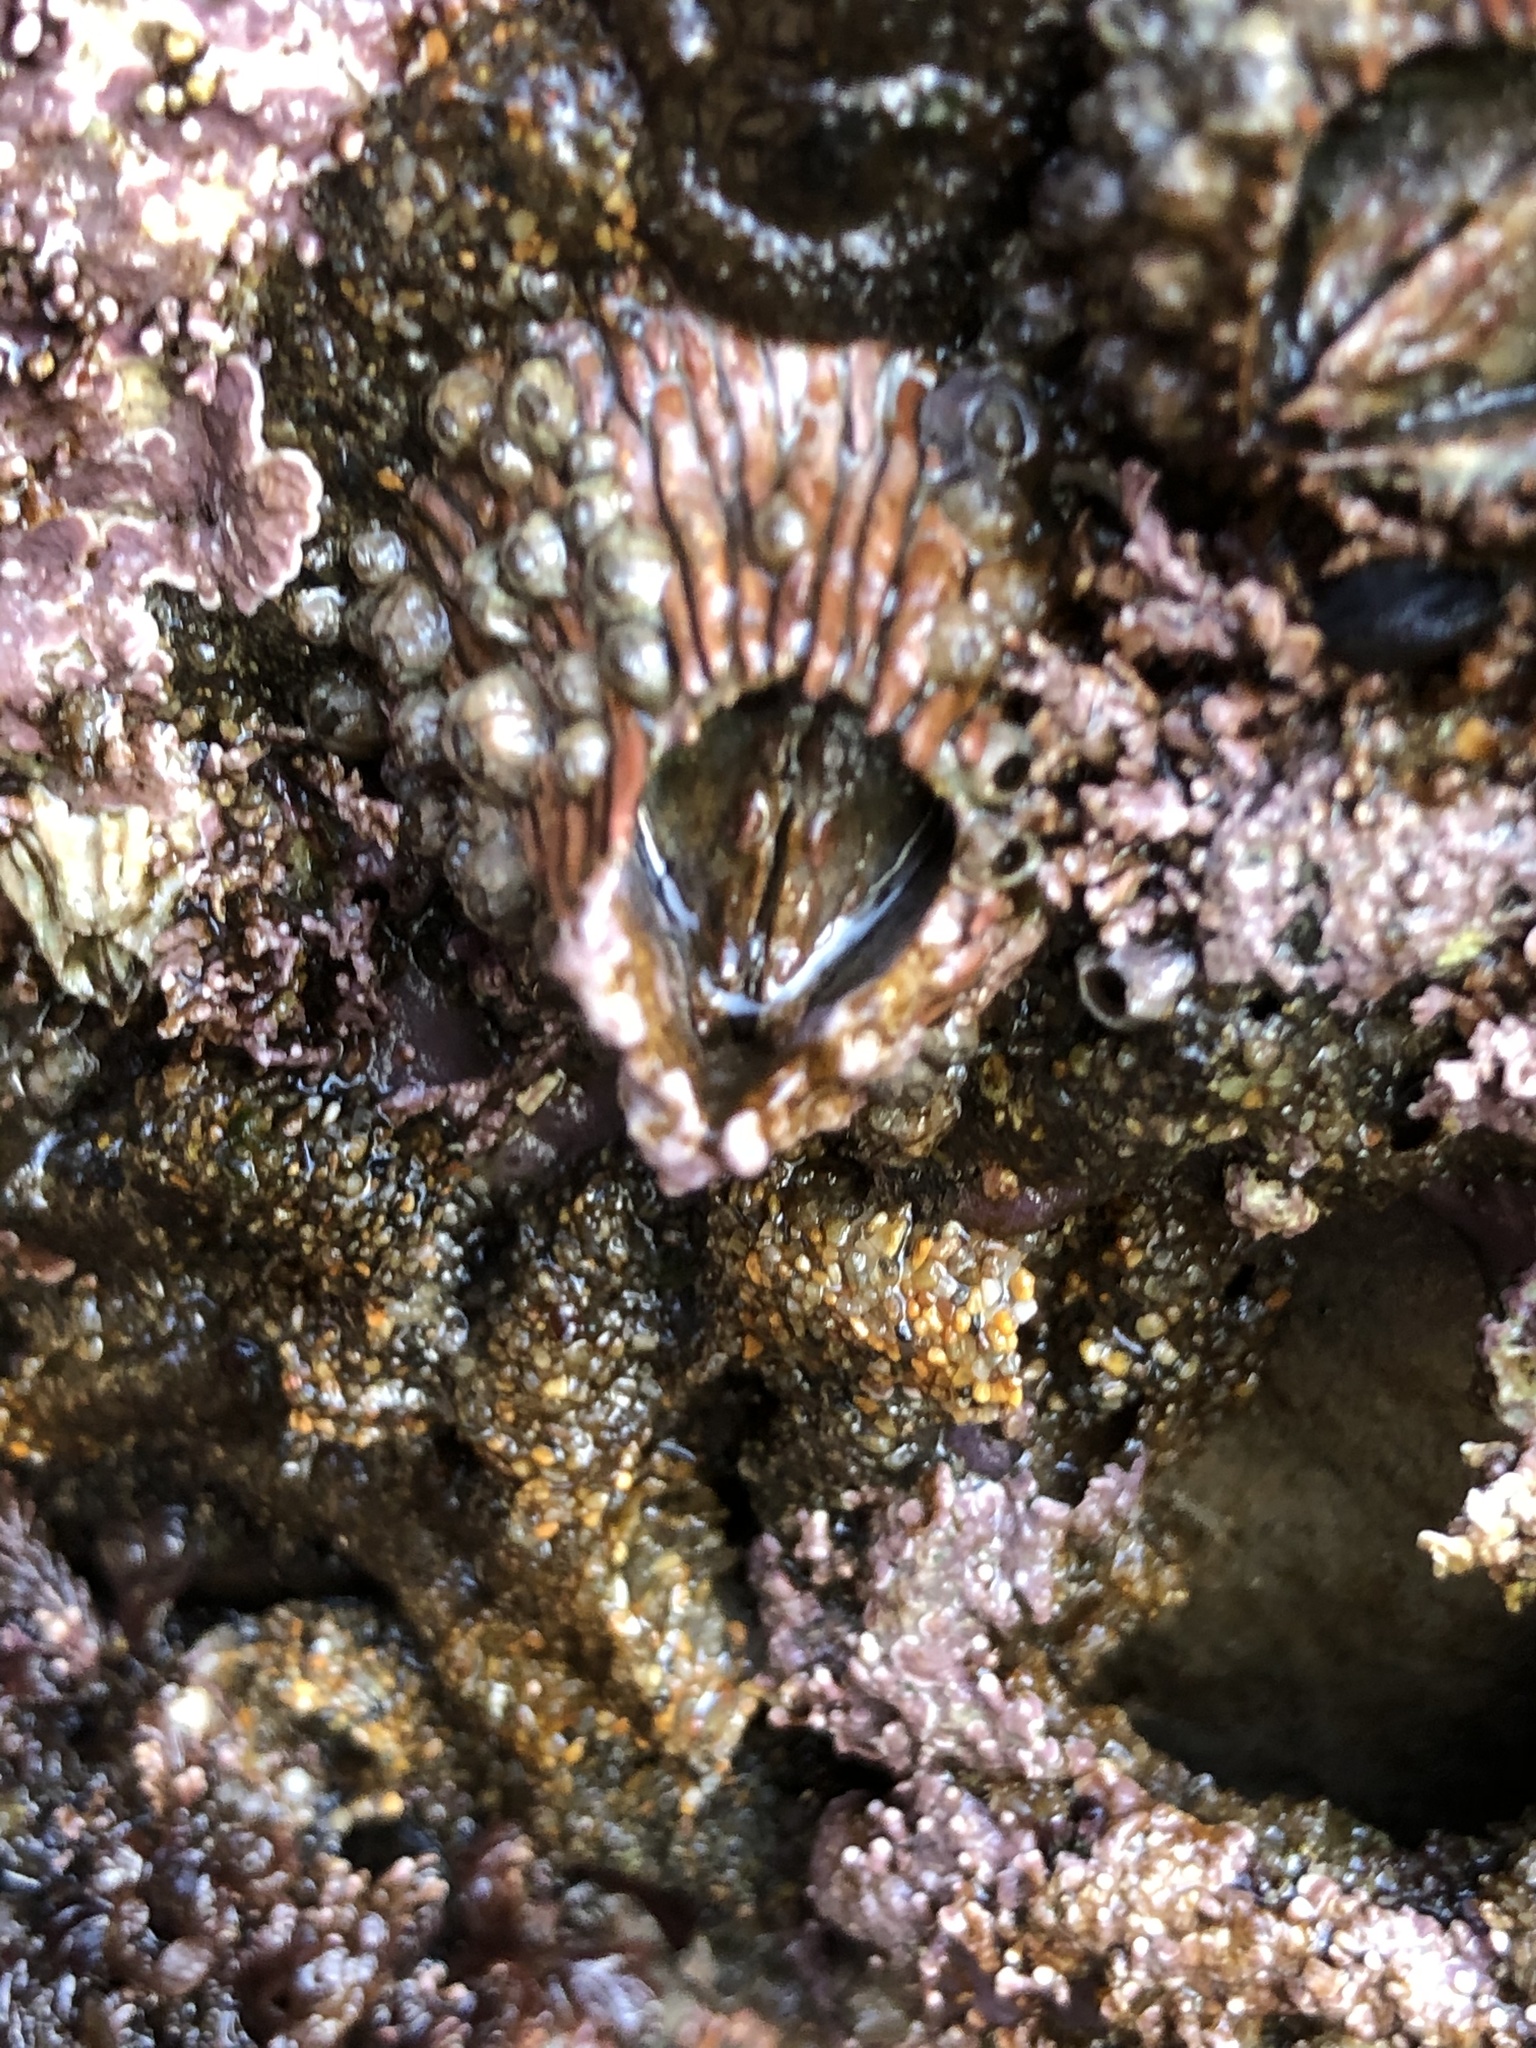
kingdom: Animalia
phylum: Arthropoda
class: Maxillopoda
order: Sessilia
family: Tetraclitidae
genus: Tetraclita
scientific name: Tetraclita rubescens
